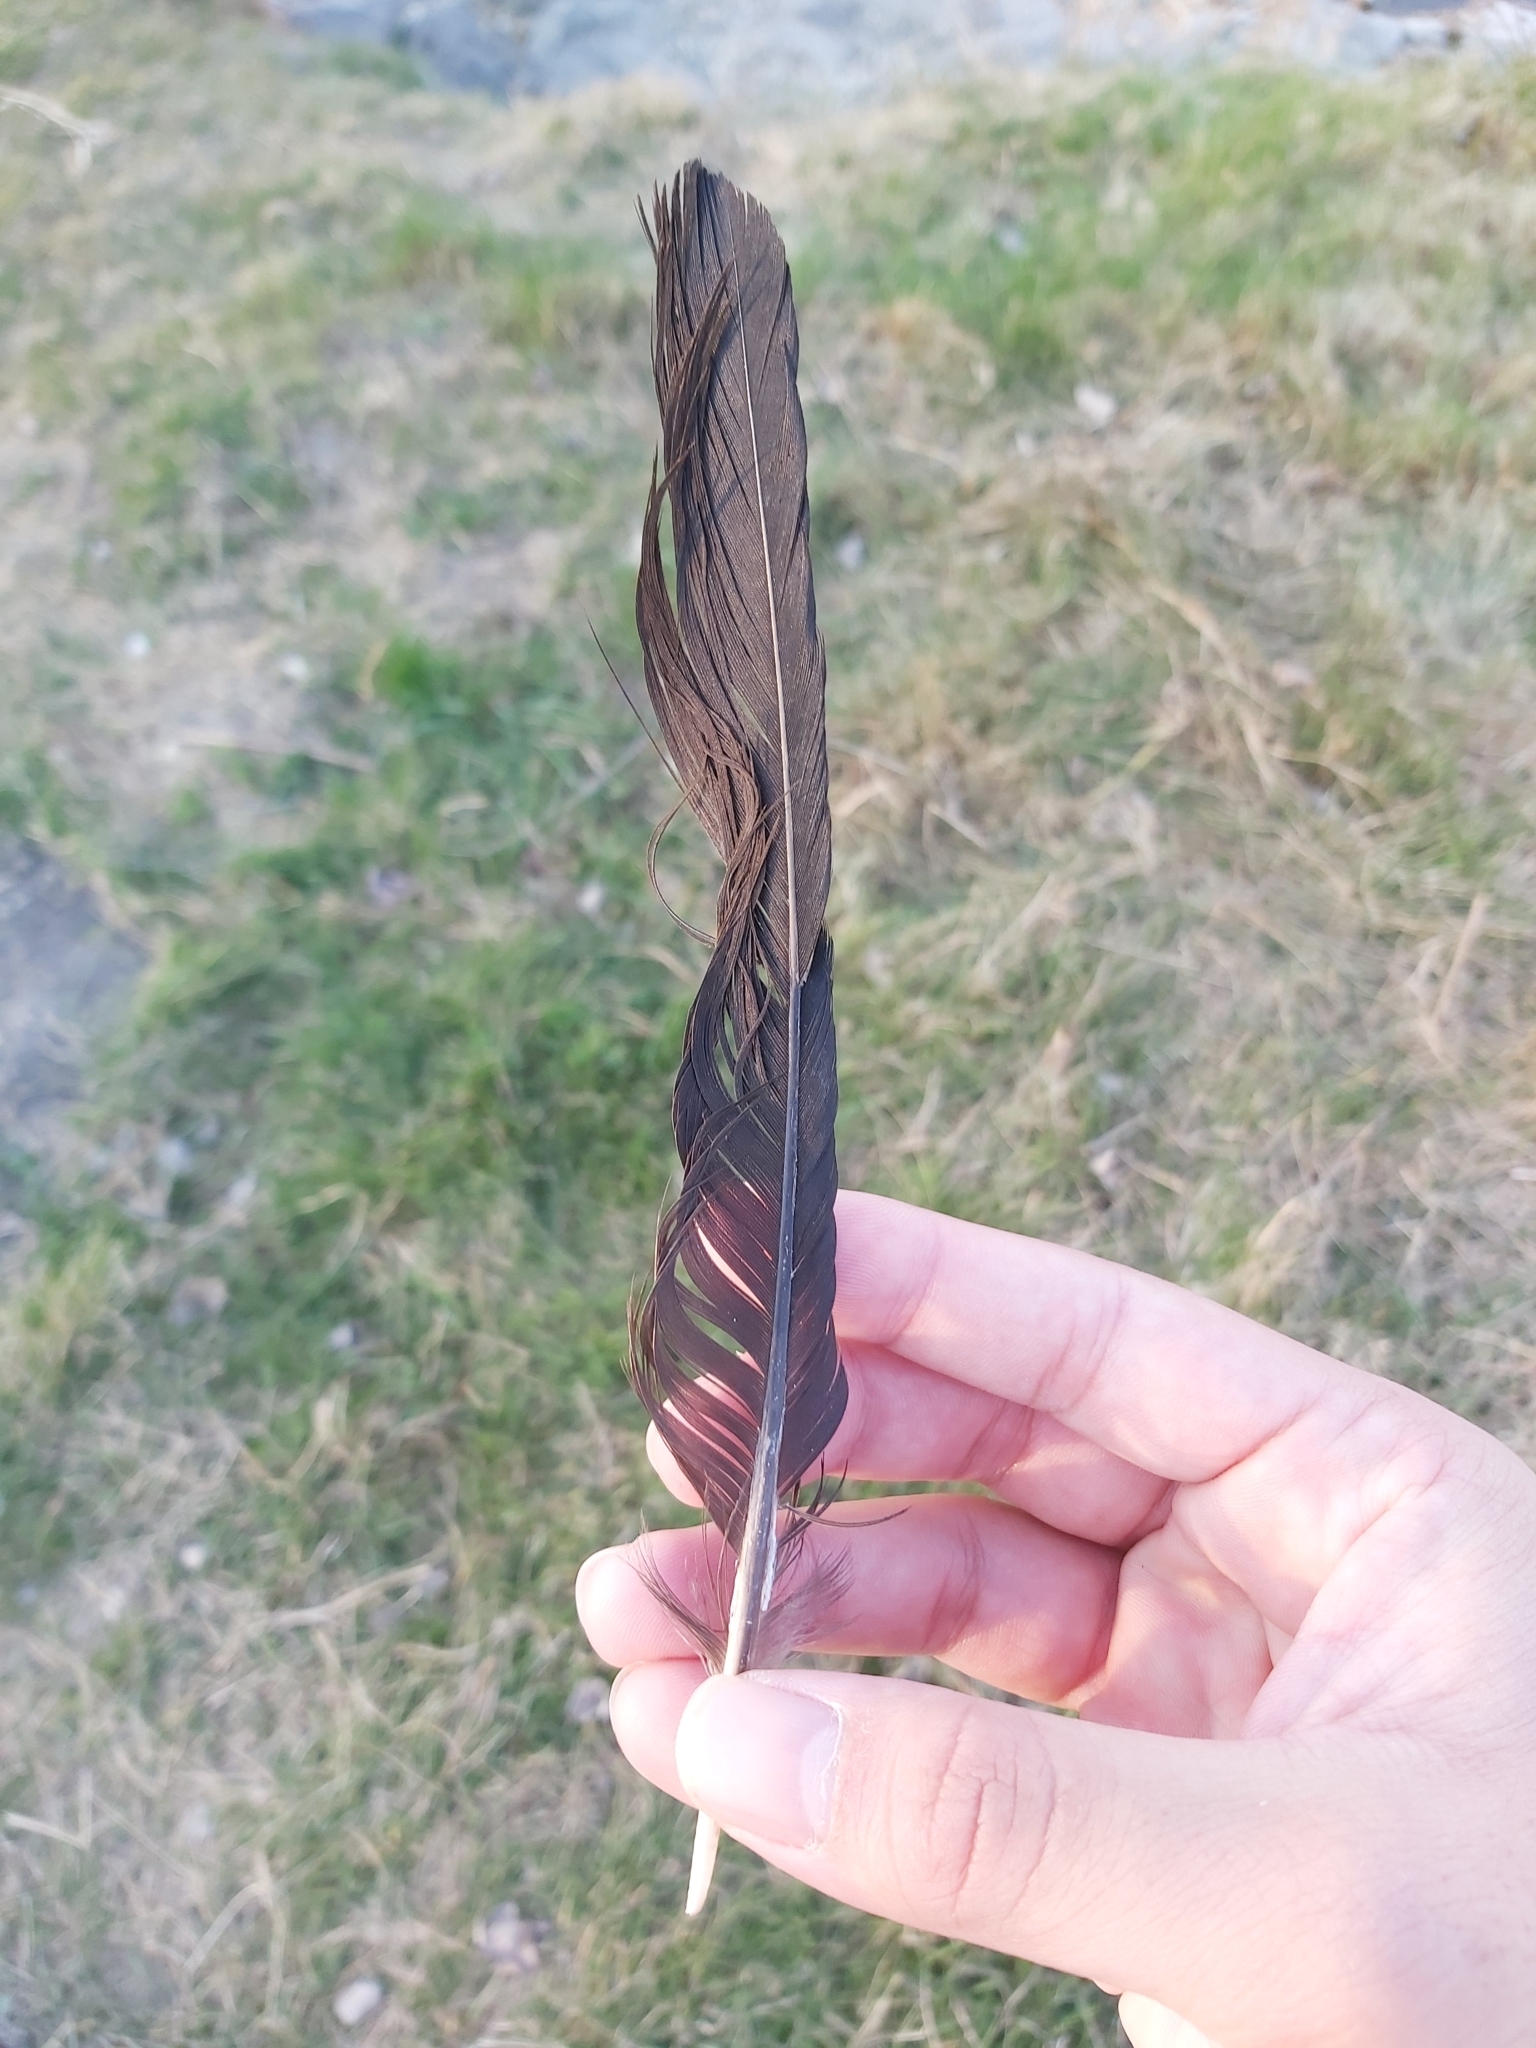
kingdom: Animalia
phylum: Chordata
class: Aves
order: Passeriformes
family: Corvidae
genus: Corvus
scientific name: Corvus cornix
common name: Hooded crow
